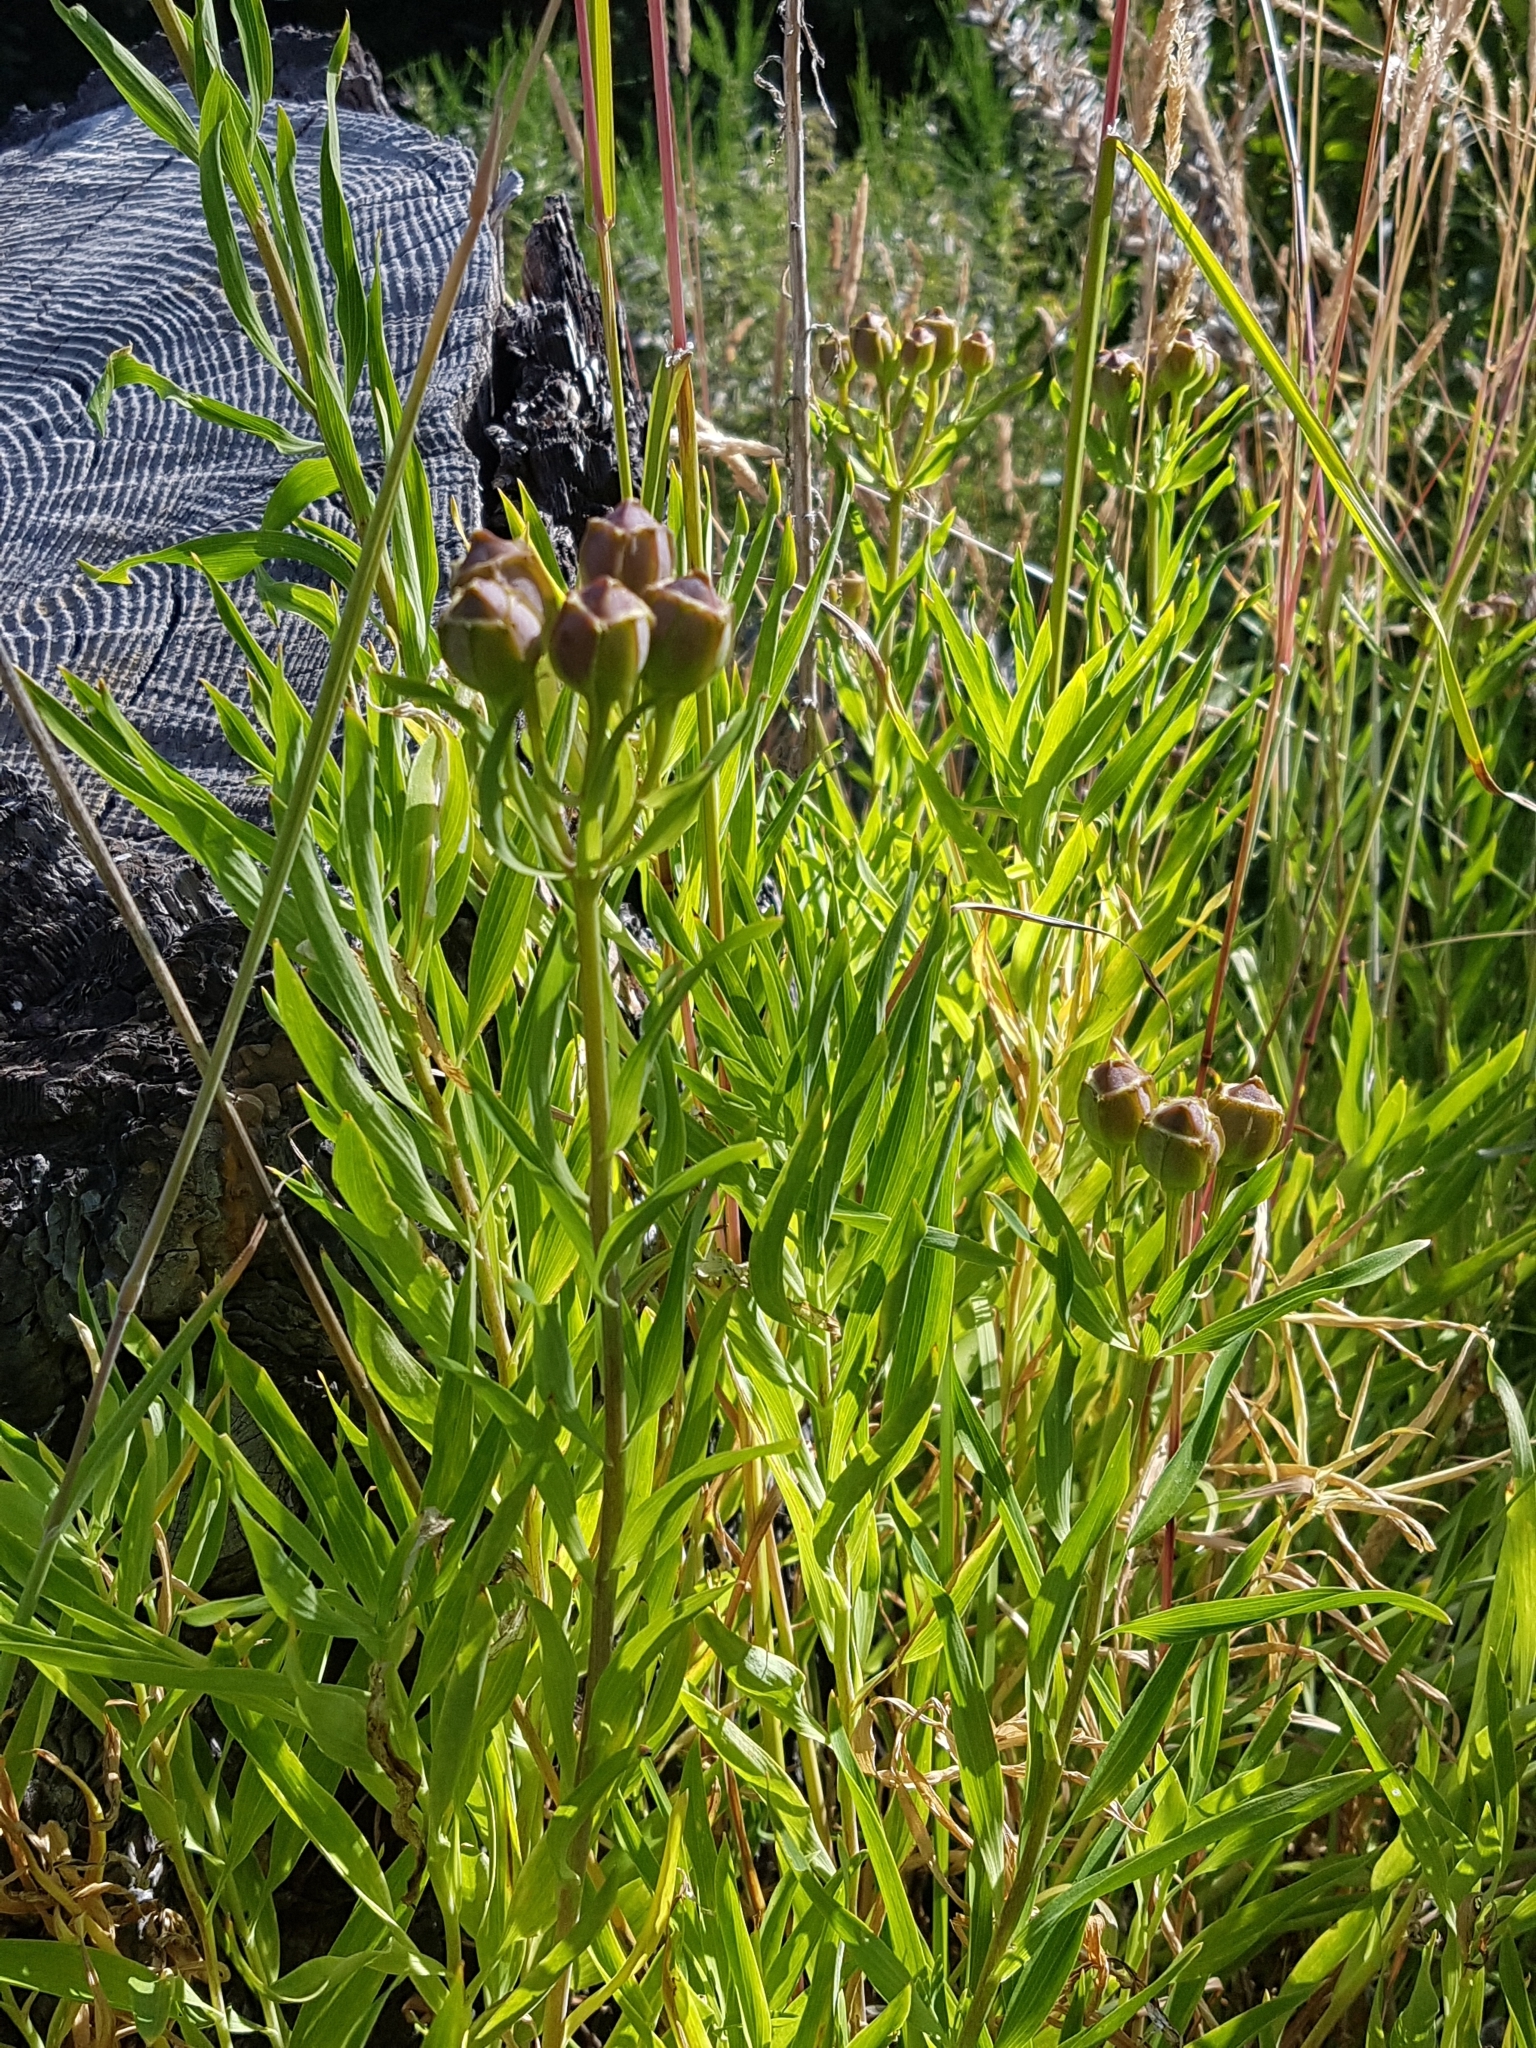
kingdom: Plantae
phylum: Tracheophyta
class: Liliopsida
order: Liliales
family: Alstroemeriaceae
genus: Alstroemeria
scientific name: Alstroemeria aurea
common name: Peruvian lily
